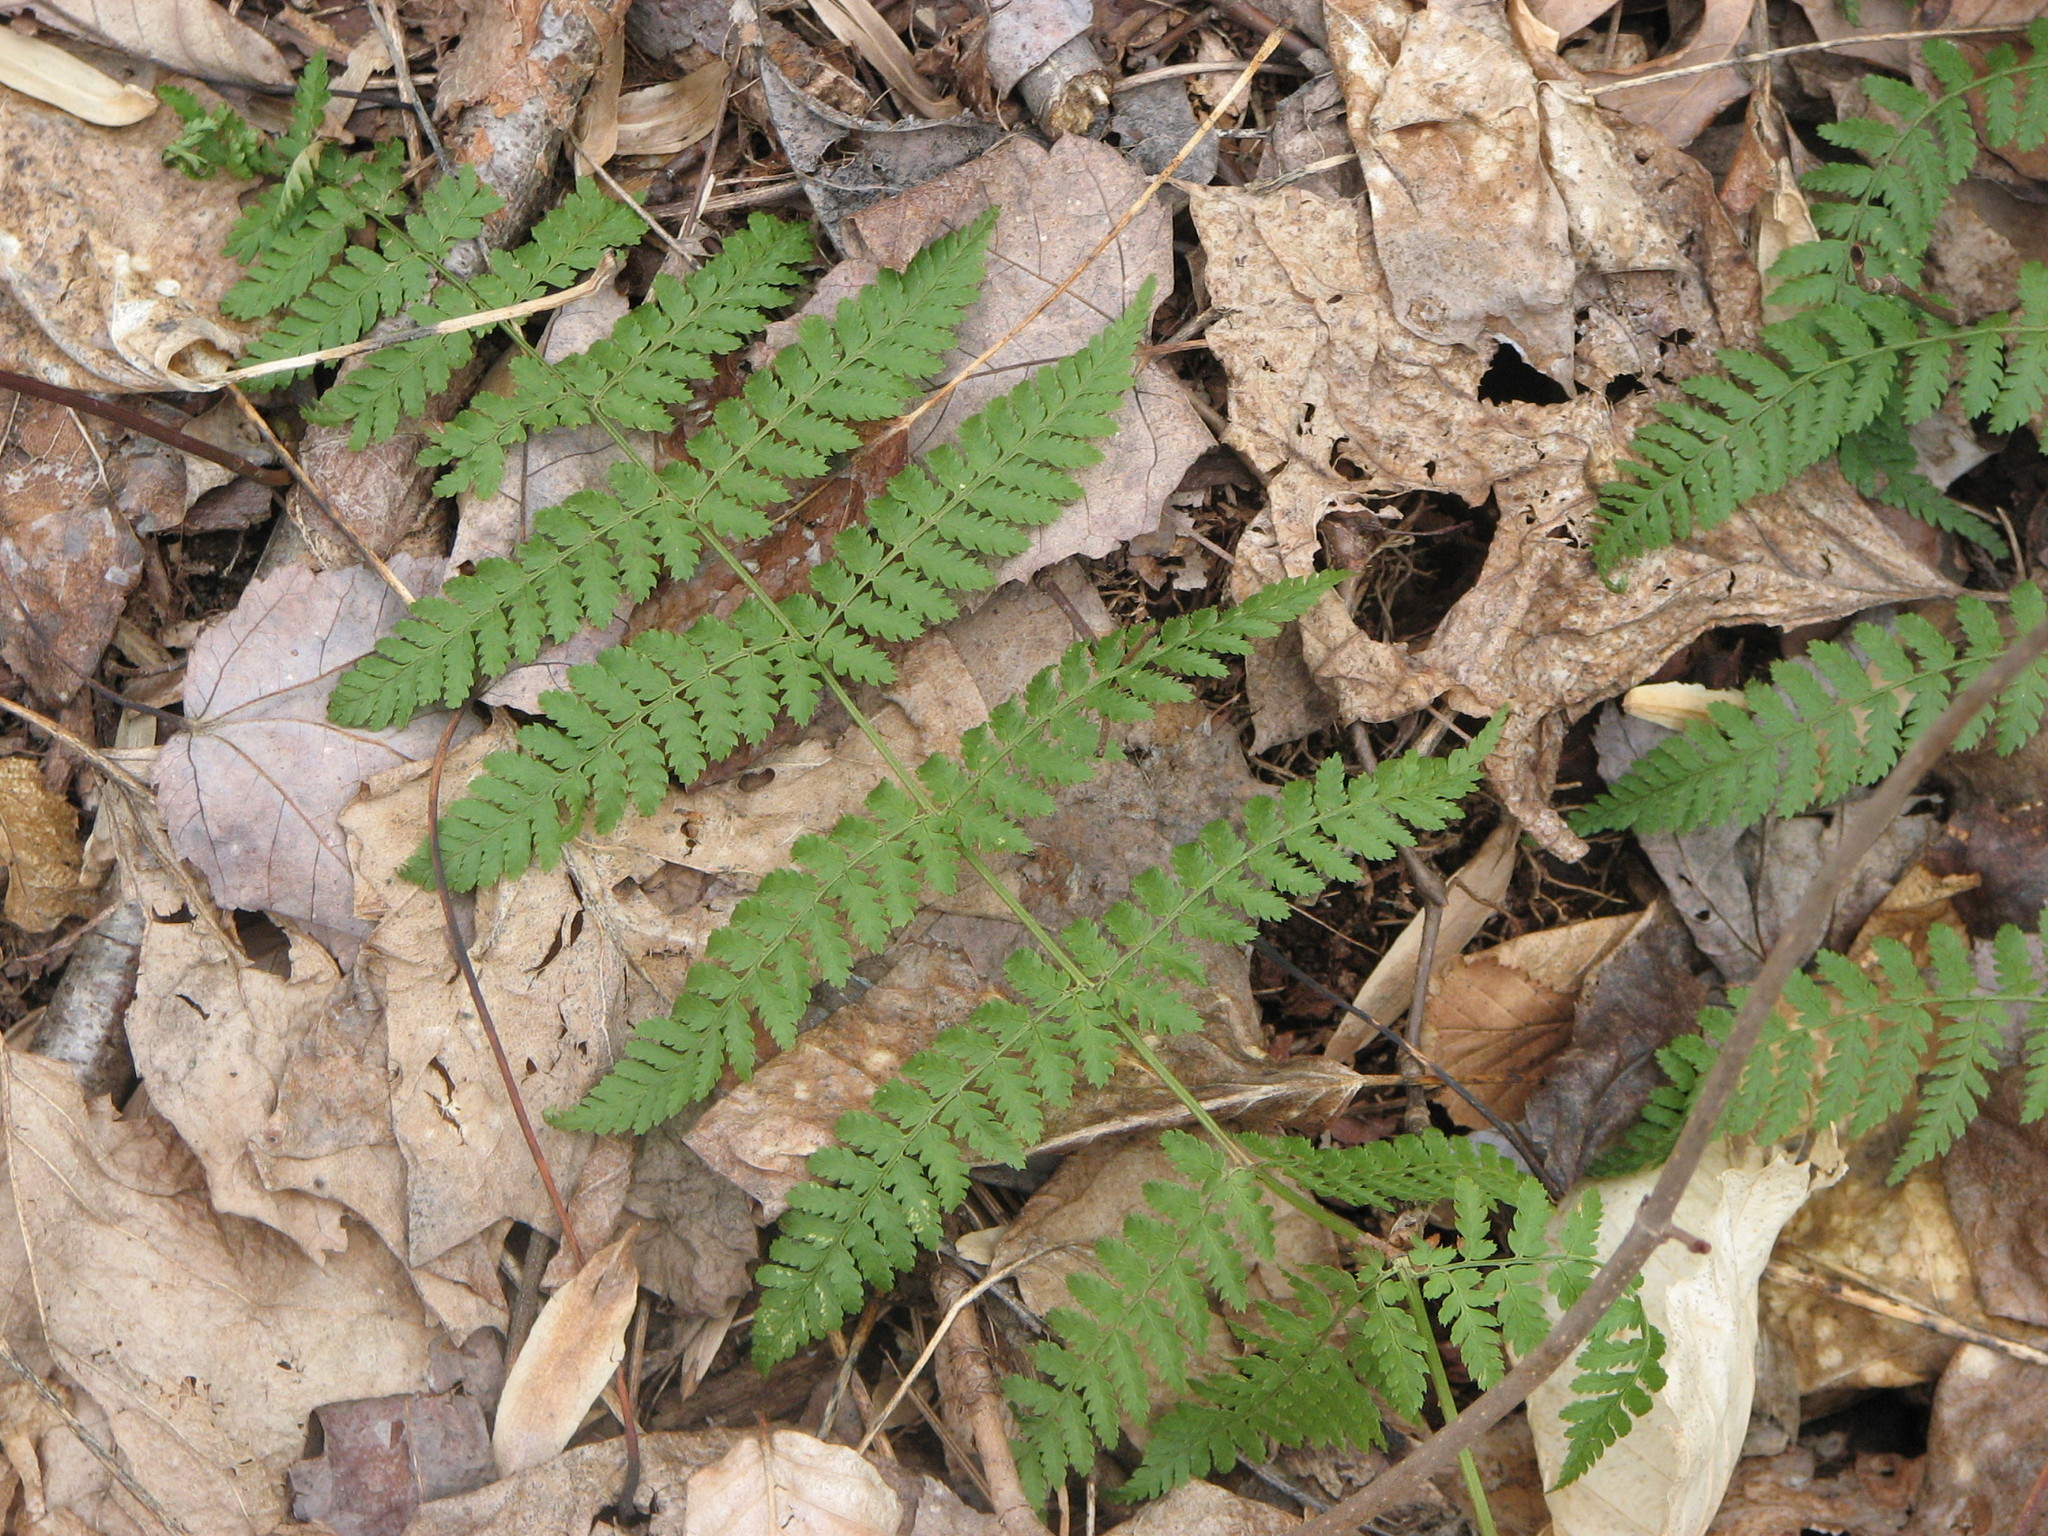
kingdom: Plantae
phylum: Tracheophyta
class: Polypodiopsida
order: Polypodiales
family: Dryopteridaceae
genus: Dryopteris
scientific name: Dryopteris intermedia
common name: Evergreen wood fern
